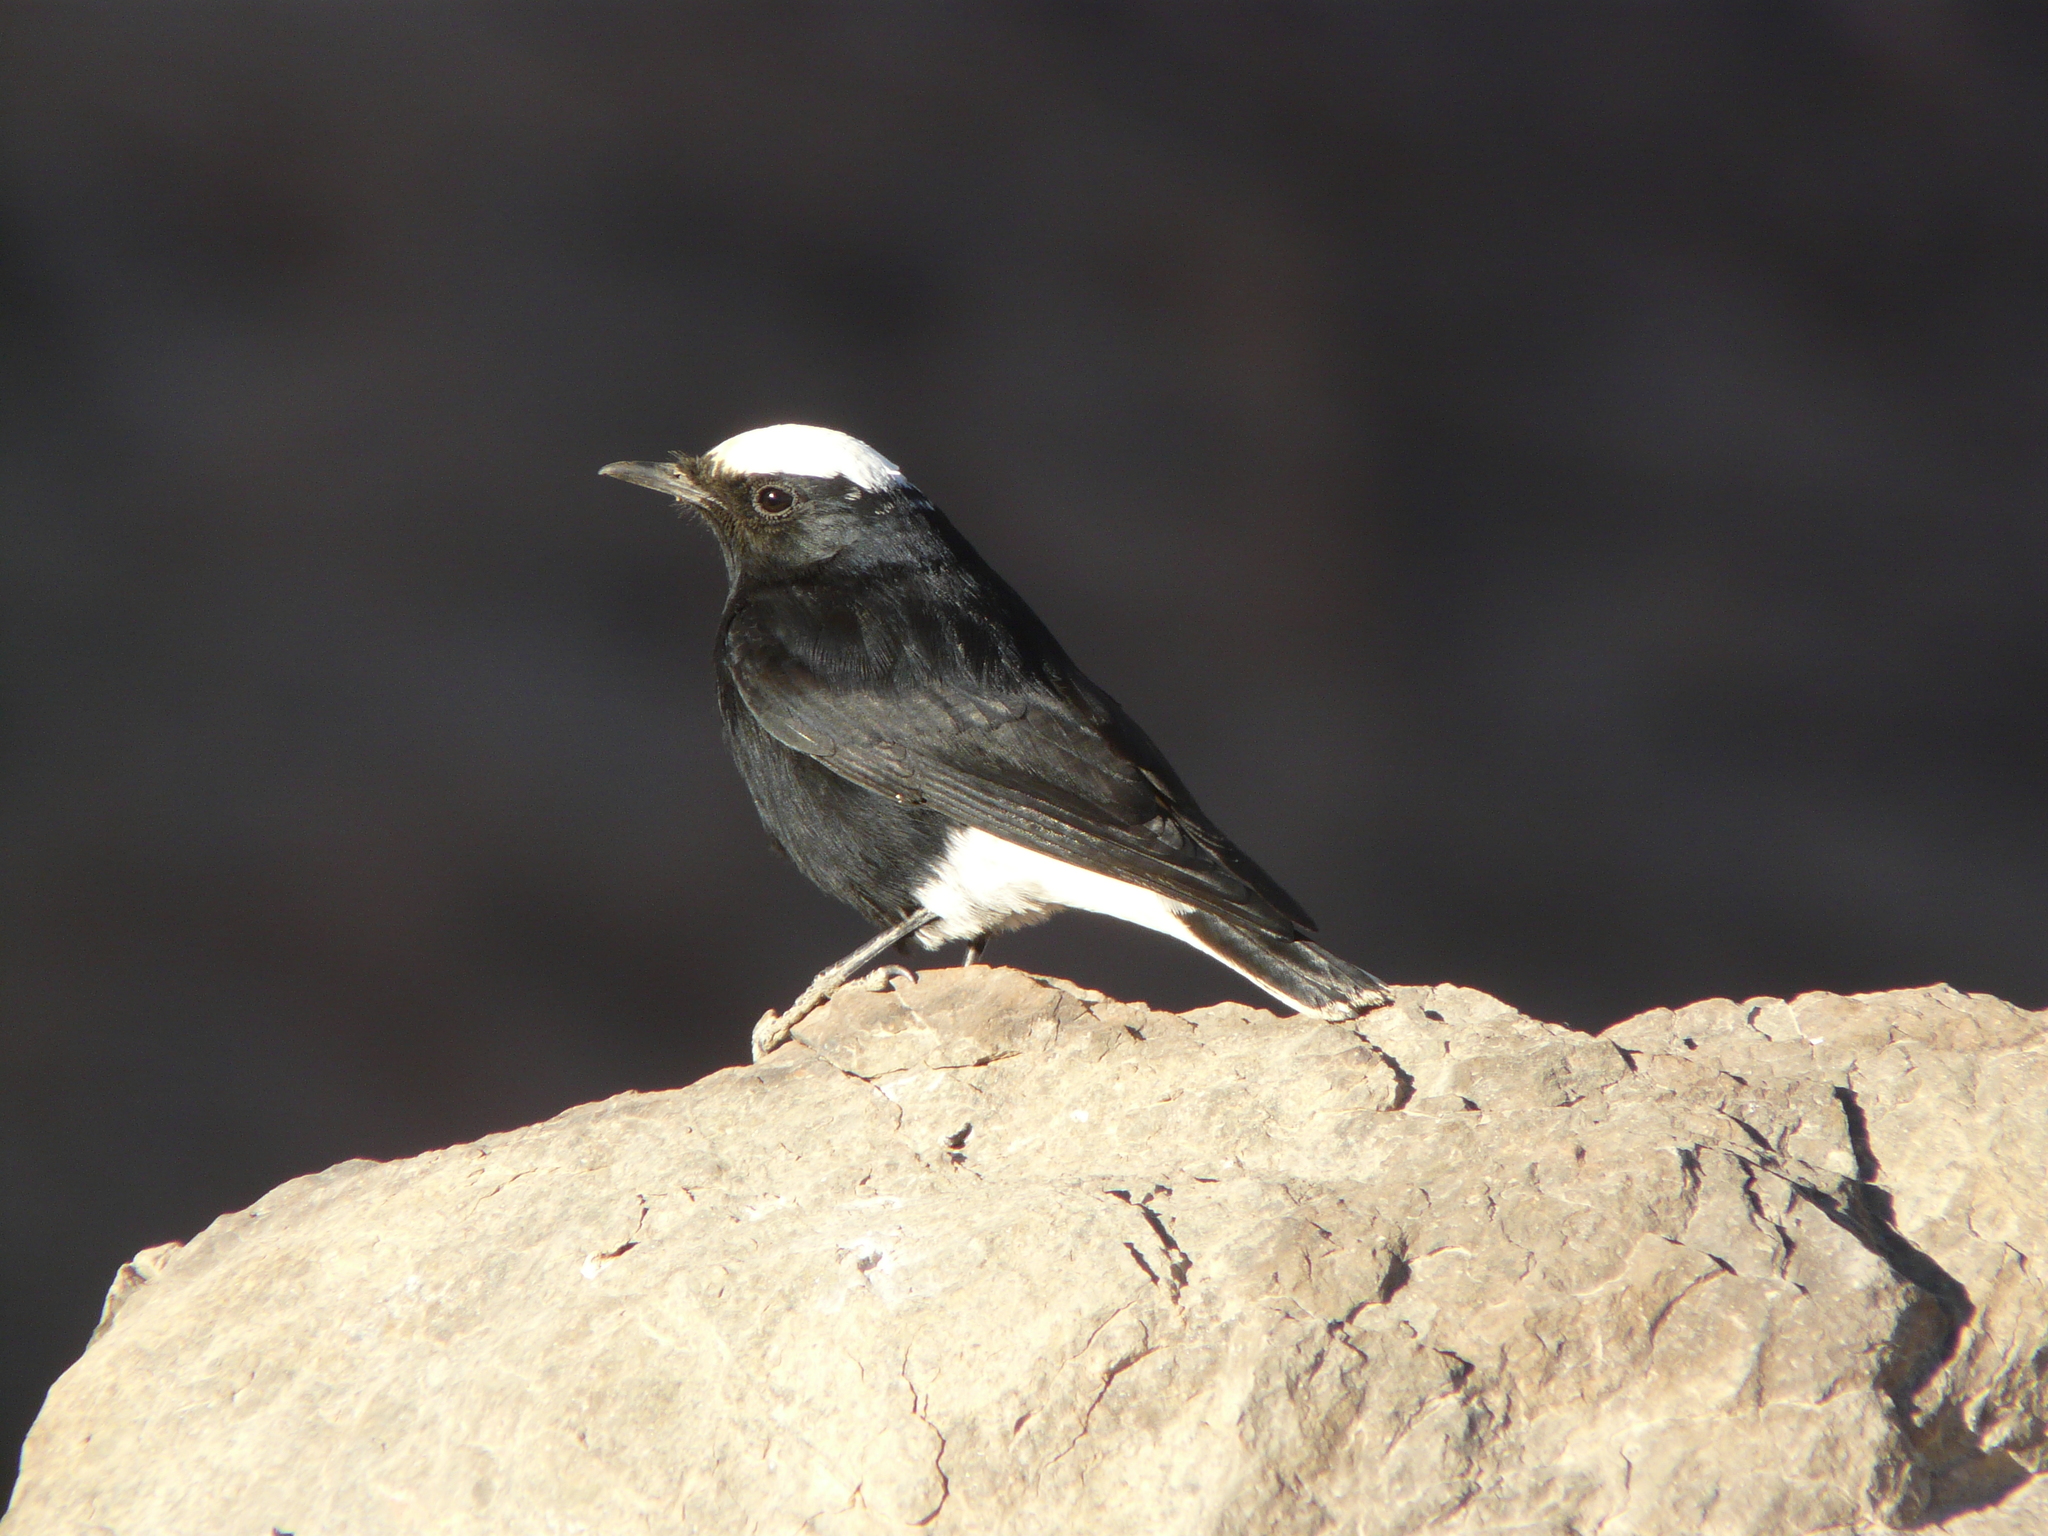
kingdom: Animalia
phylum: Chordata
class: Aves
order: Passeriformes
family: Muscicapidae
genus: Oenanthe
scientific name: Oenanthe leucopyga
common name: White-crowned wheatear
